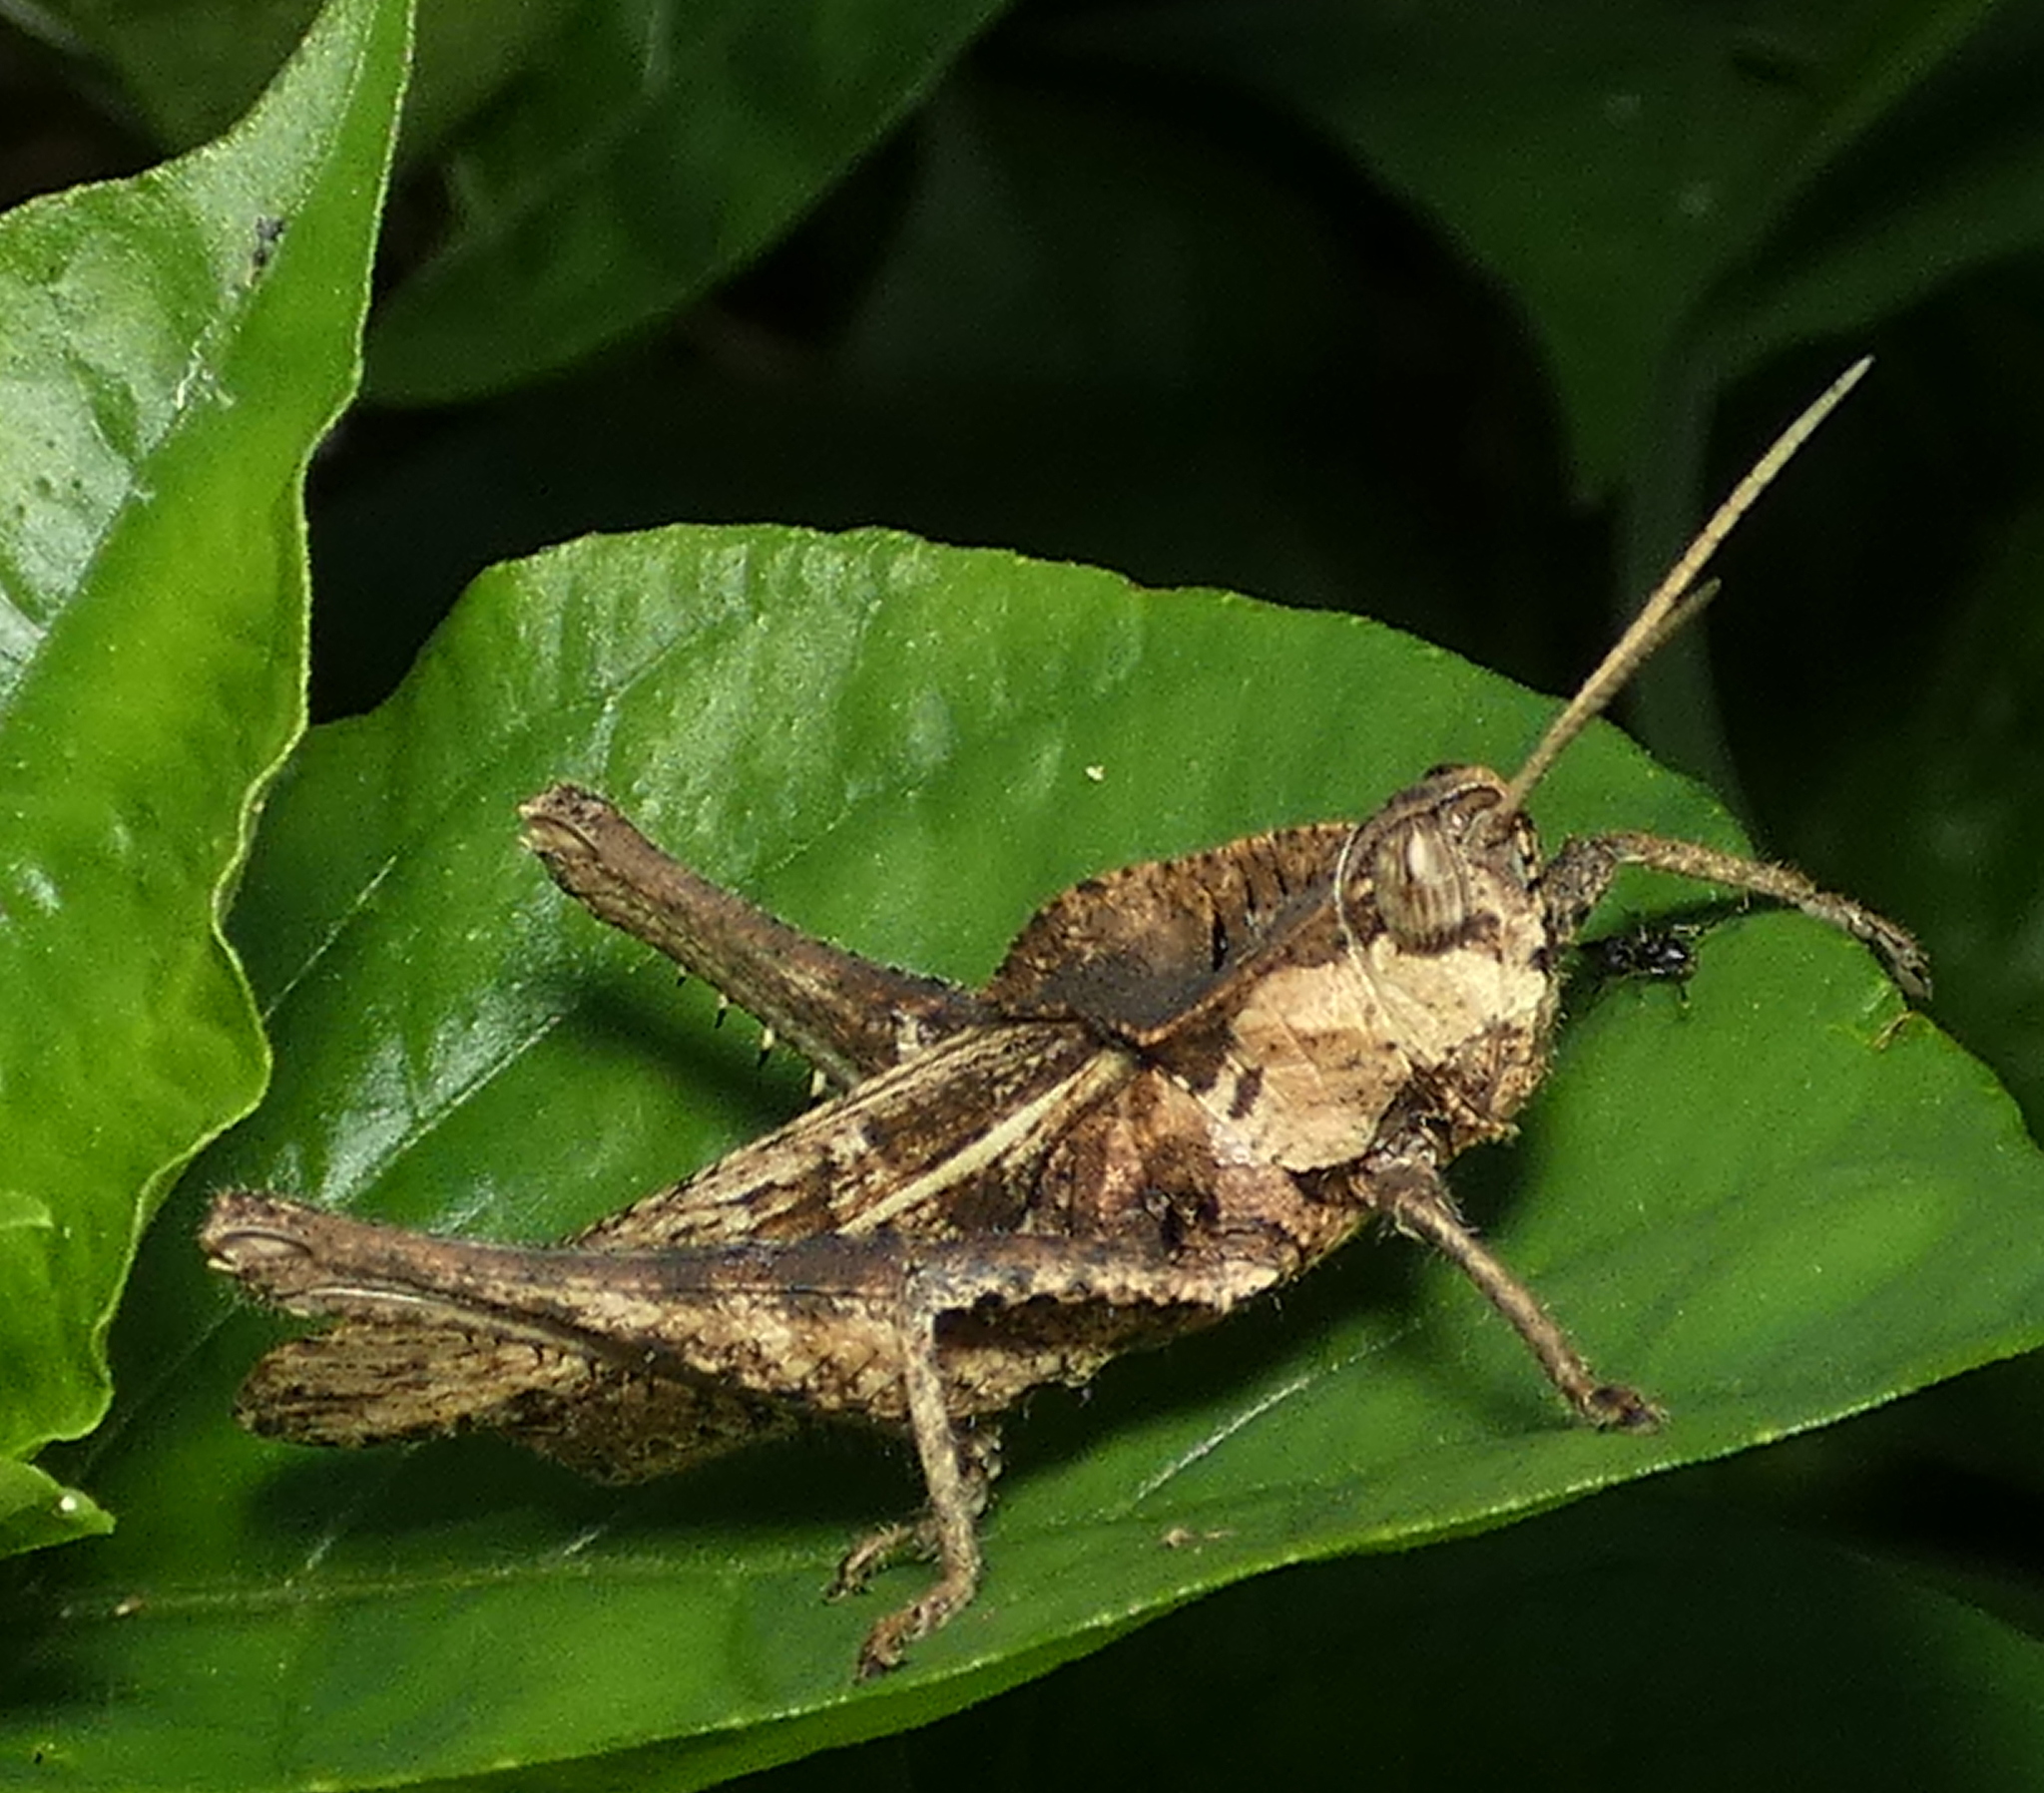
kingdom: Animalia
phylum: Arthropoda
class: Insecta
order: Orthoptera
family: Romaleidae
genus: Xyleus
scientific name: Xyleus discoideus
